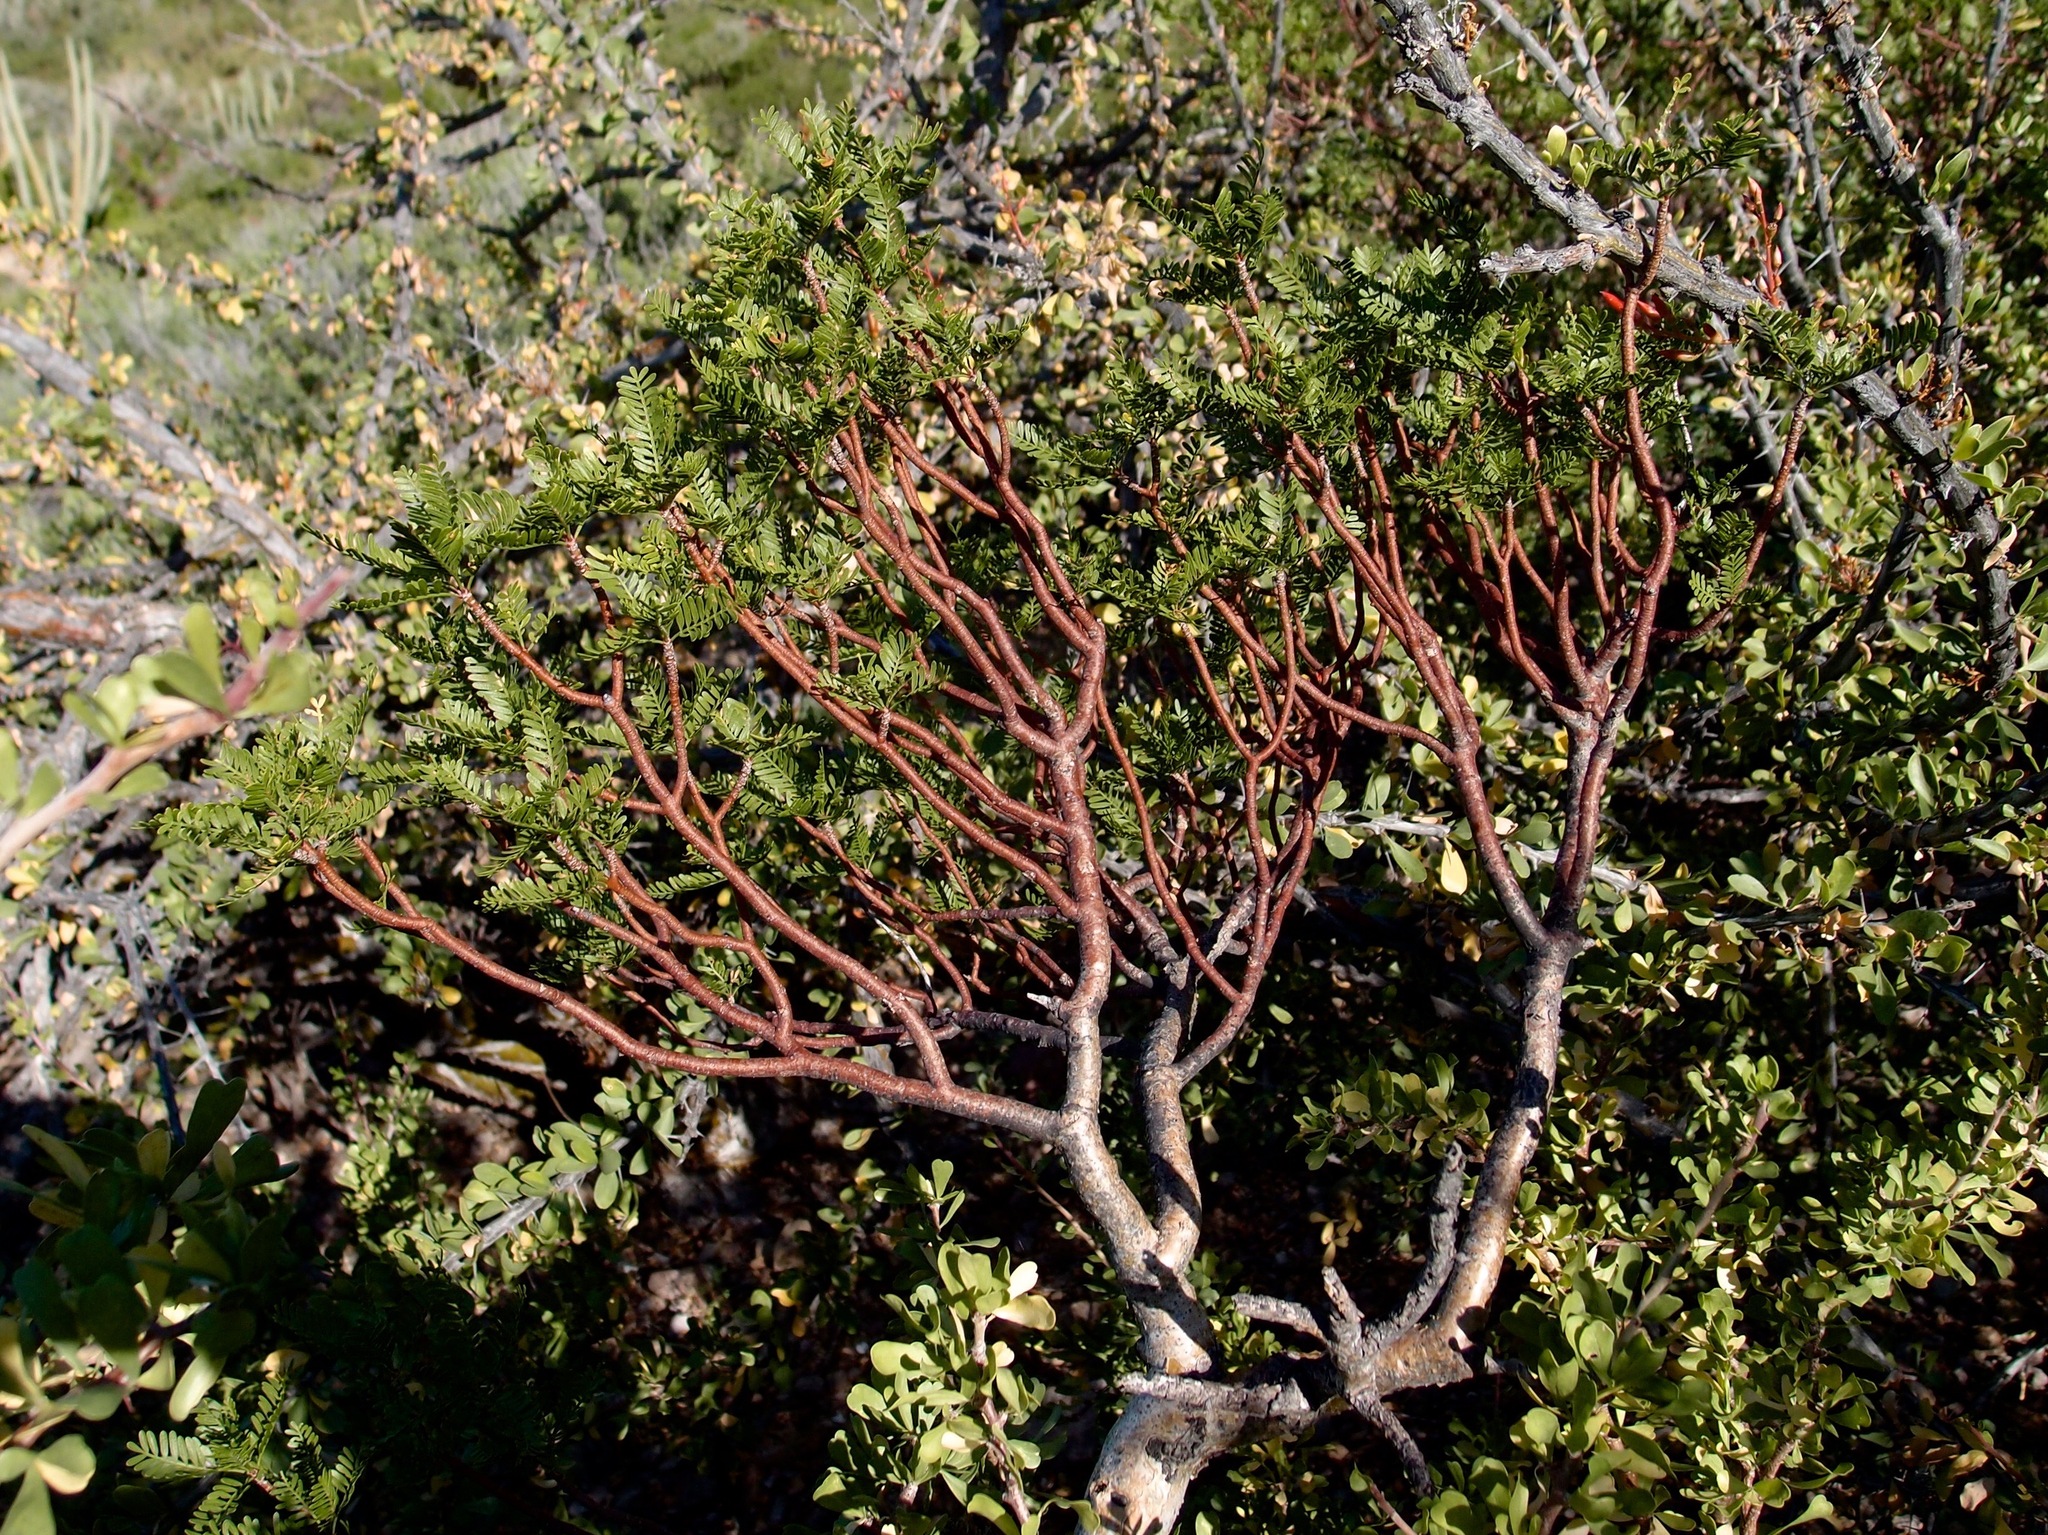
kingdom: Plantae
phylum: Tracheophyta
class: Magnoliopsida
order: Sapindales
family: Burseraceae
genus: Bursera
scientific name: Bursera microphylla
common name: Elephant tree
